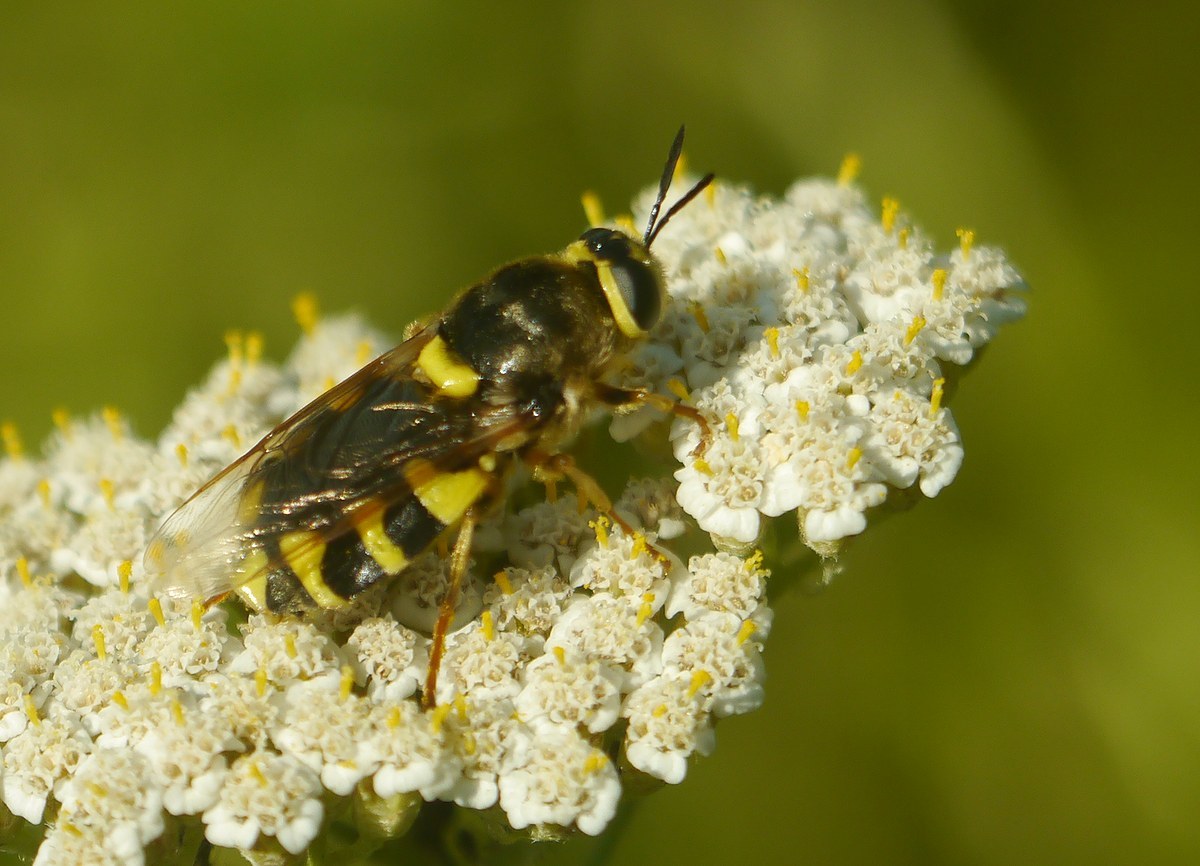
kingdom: Animalia
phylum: Arthropoda
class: Insecta
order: Diptera
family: Stratiomyidae
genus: Stratiomys
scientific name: Stratiomys chamaeleon
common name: Clubbed general
